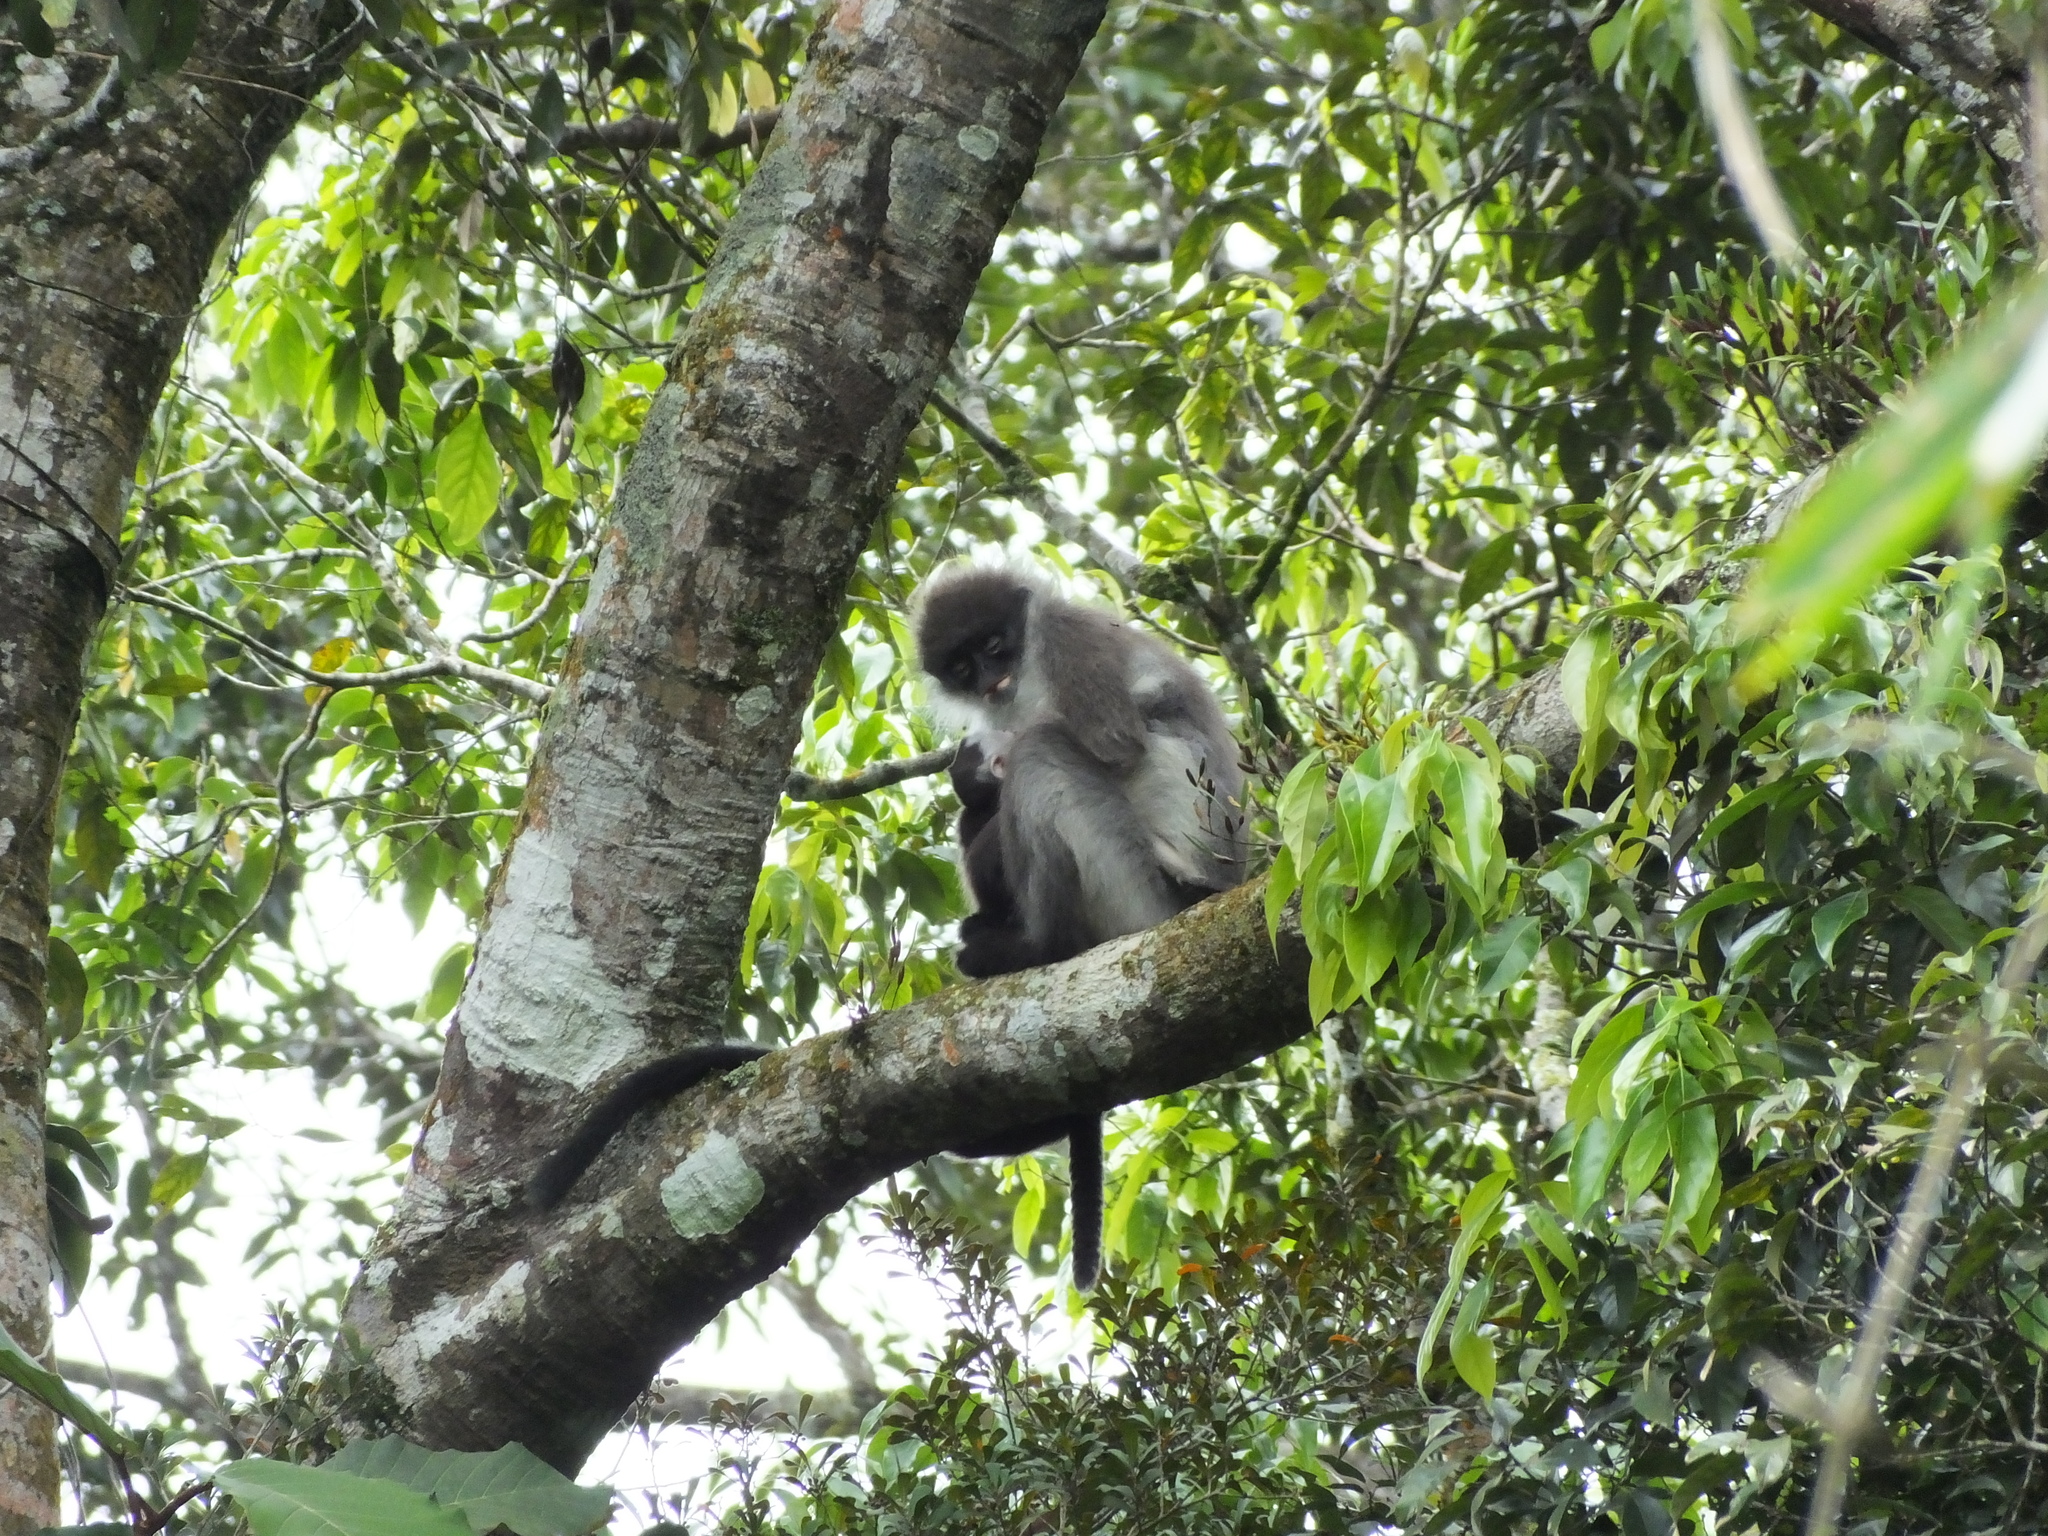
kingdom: Animalia
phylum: Chordata
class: Mammalia
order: Primates
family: Cercopithecidae
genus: Presbytis
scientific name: Presbytis siamensis
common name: White-thighed surili
